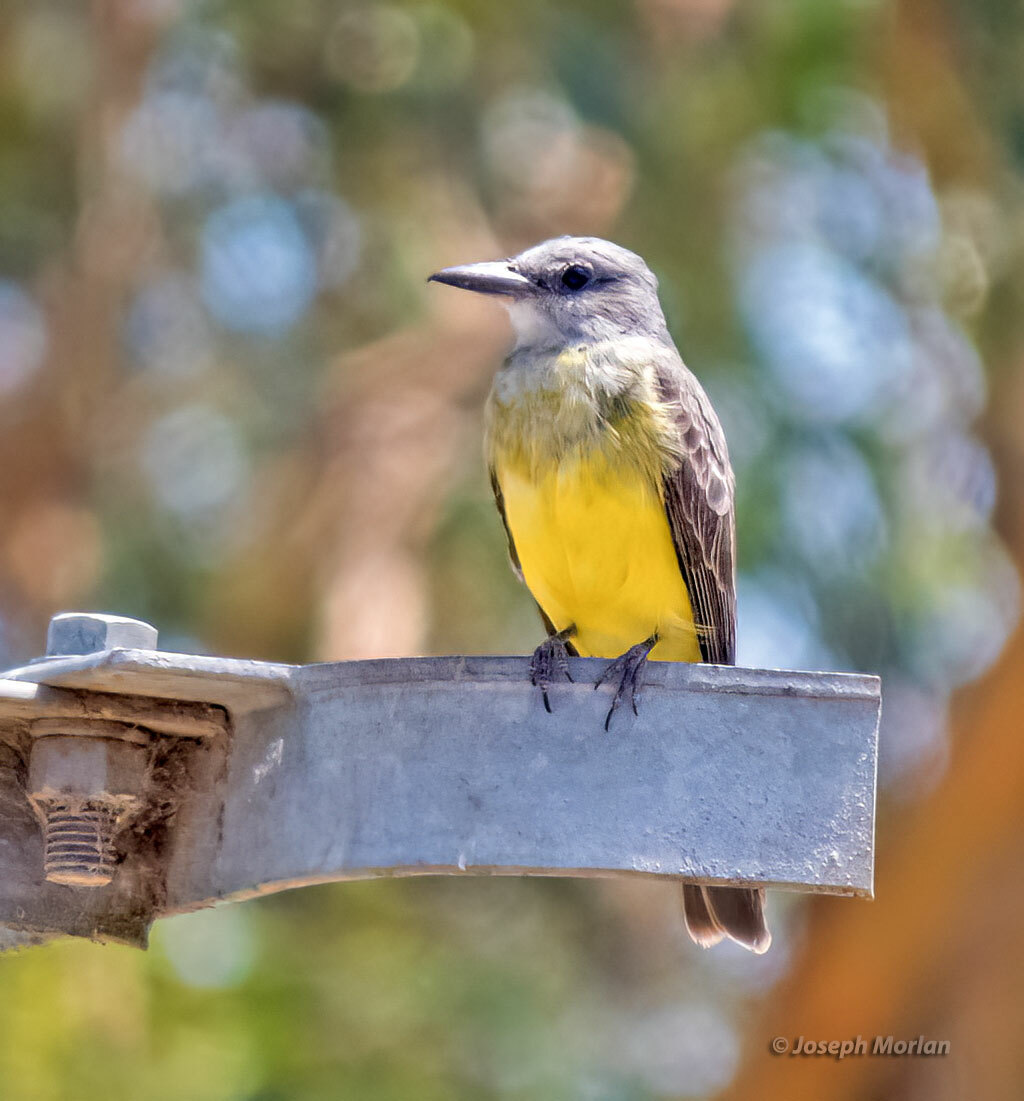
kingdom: Animalia
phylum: Chordata
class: Aves
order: Passeriformes
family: Tyrannidae
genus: Tyrannus
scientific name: Tyrannus melancholicus
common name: Tropical kingbird
